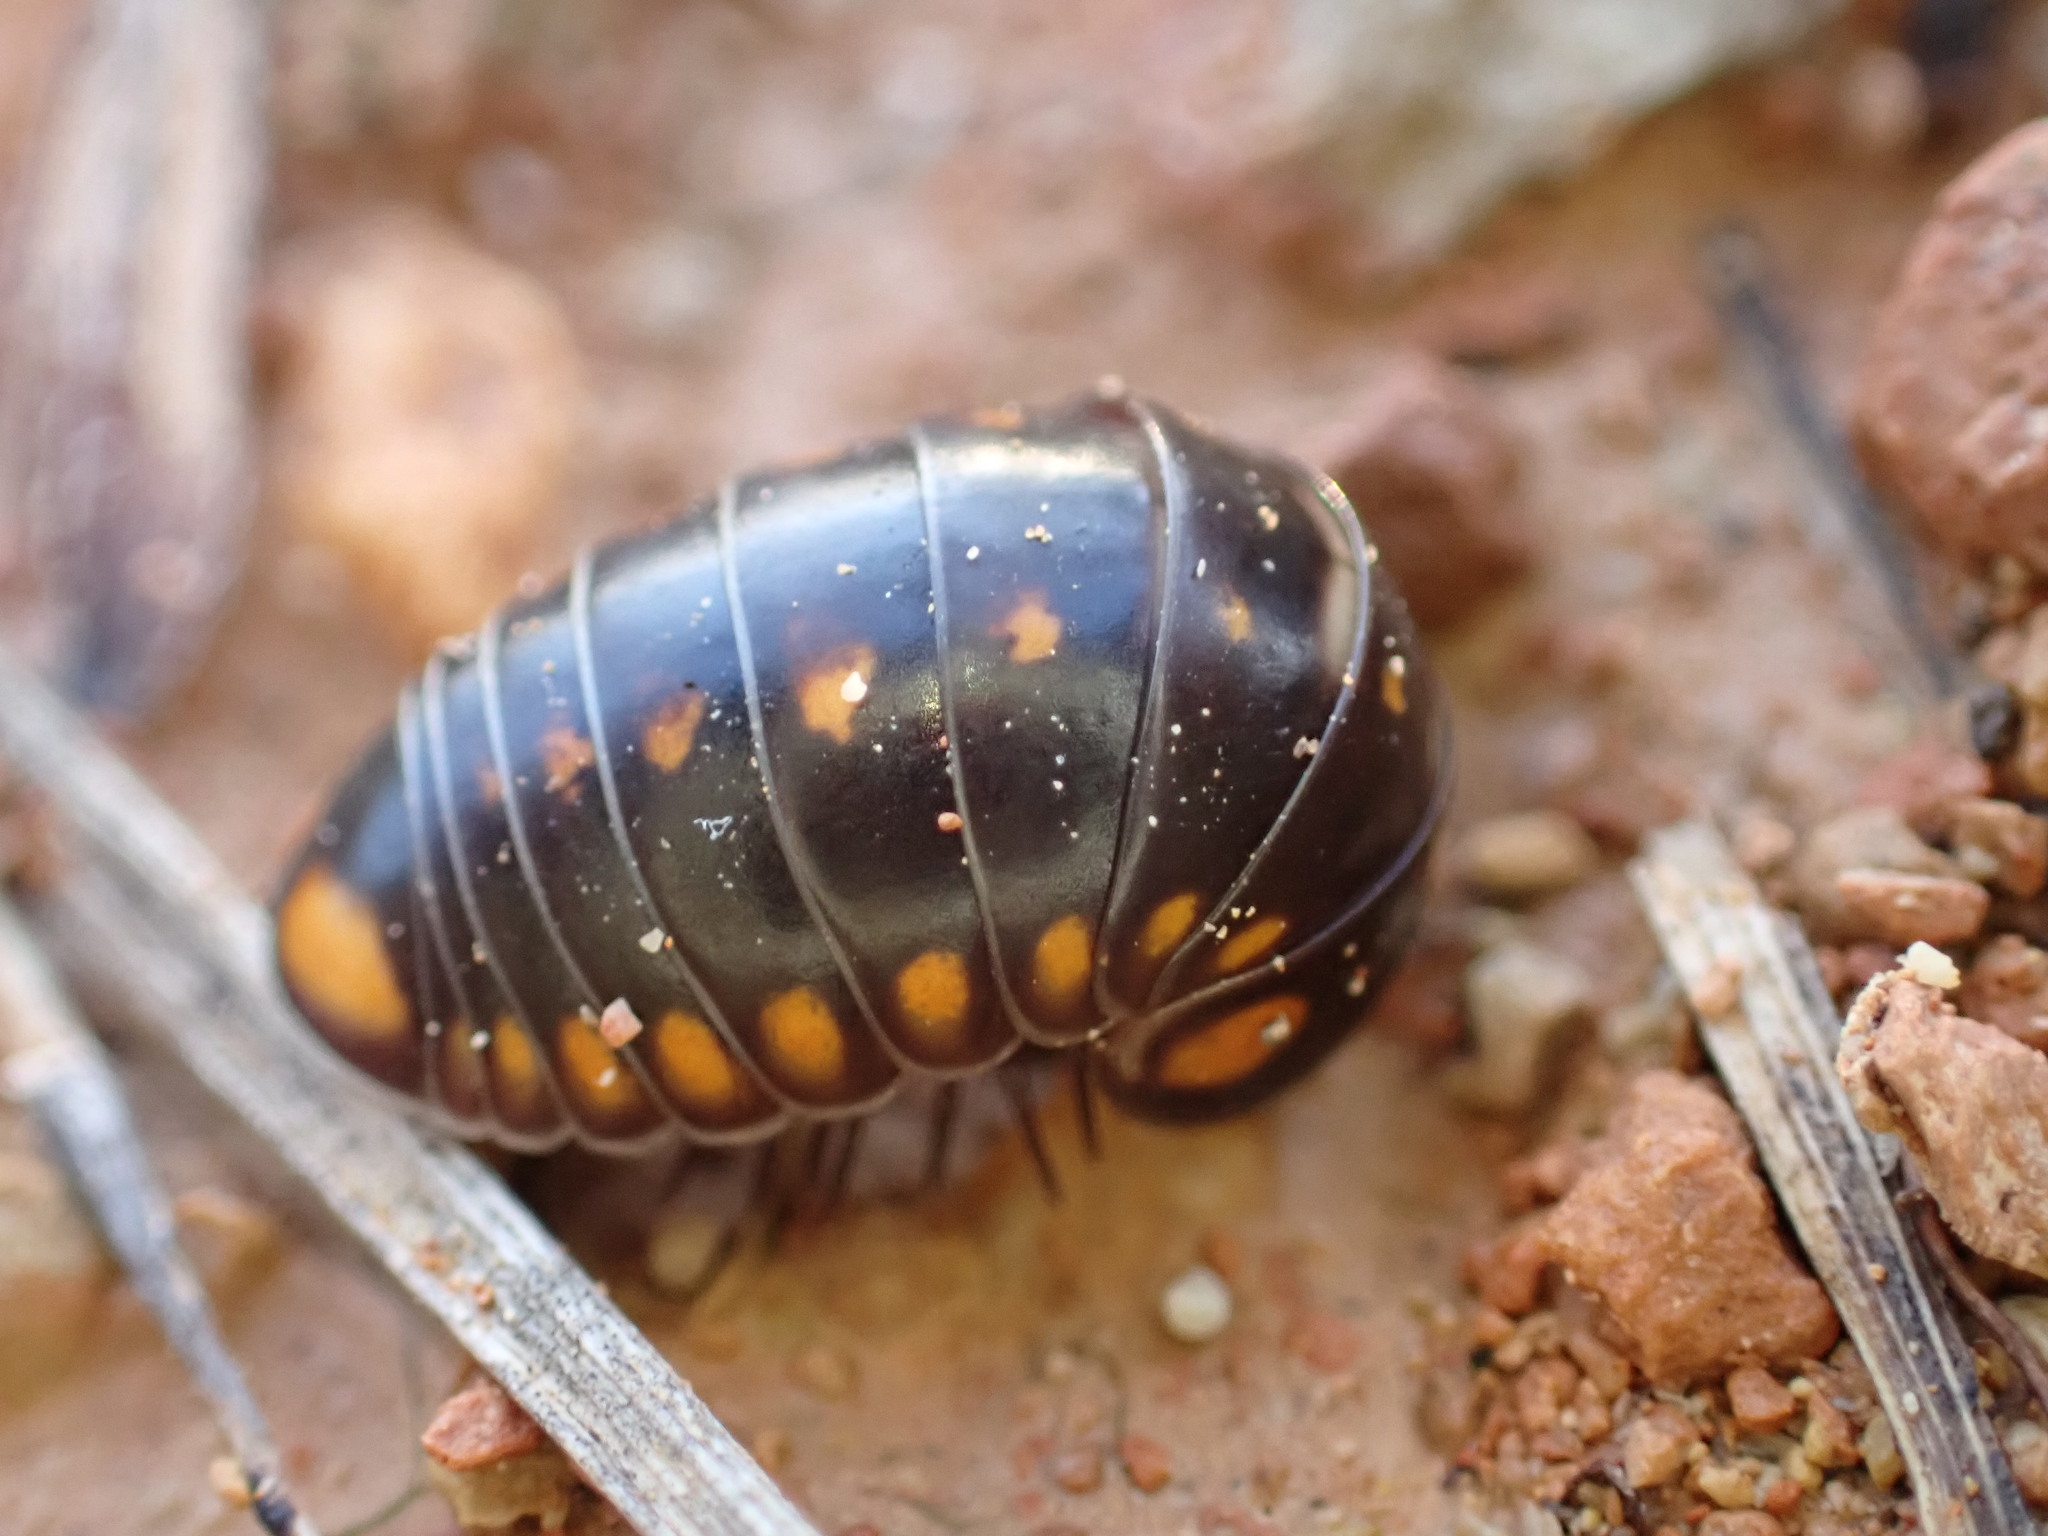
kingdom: Animalia
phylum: Arthropoda
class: Diplopoda
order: Glomerida
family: Glomeridae
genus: Glomeris
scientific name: Glomeris guttata
